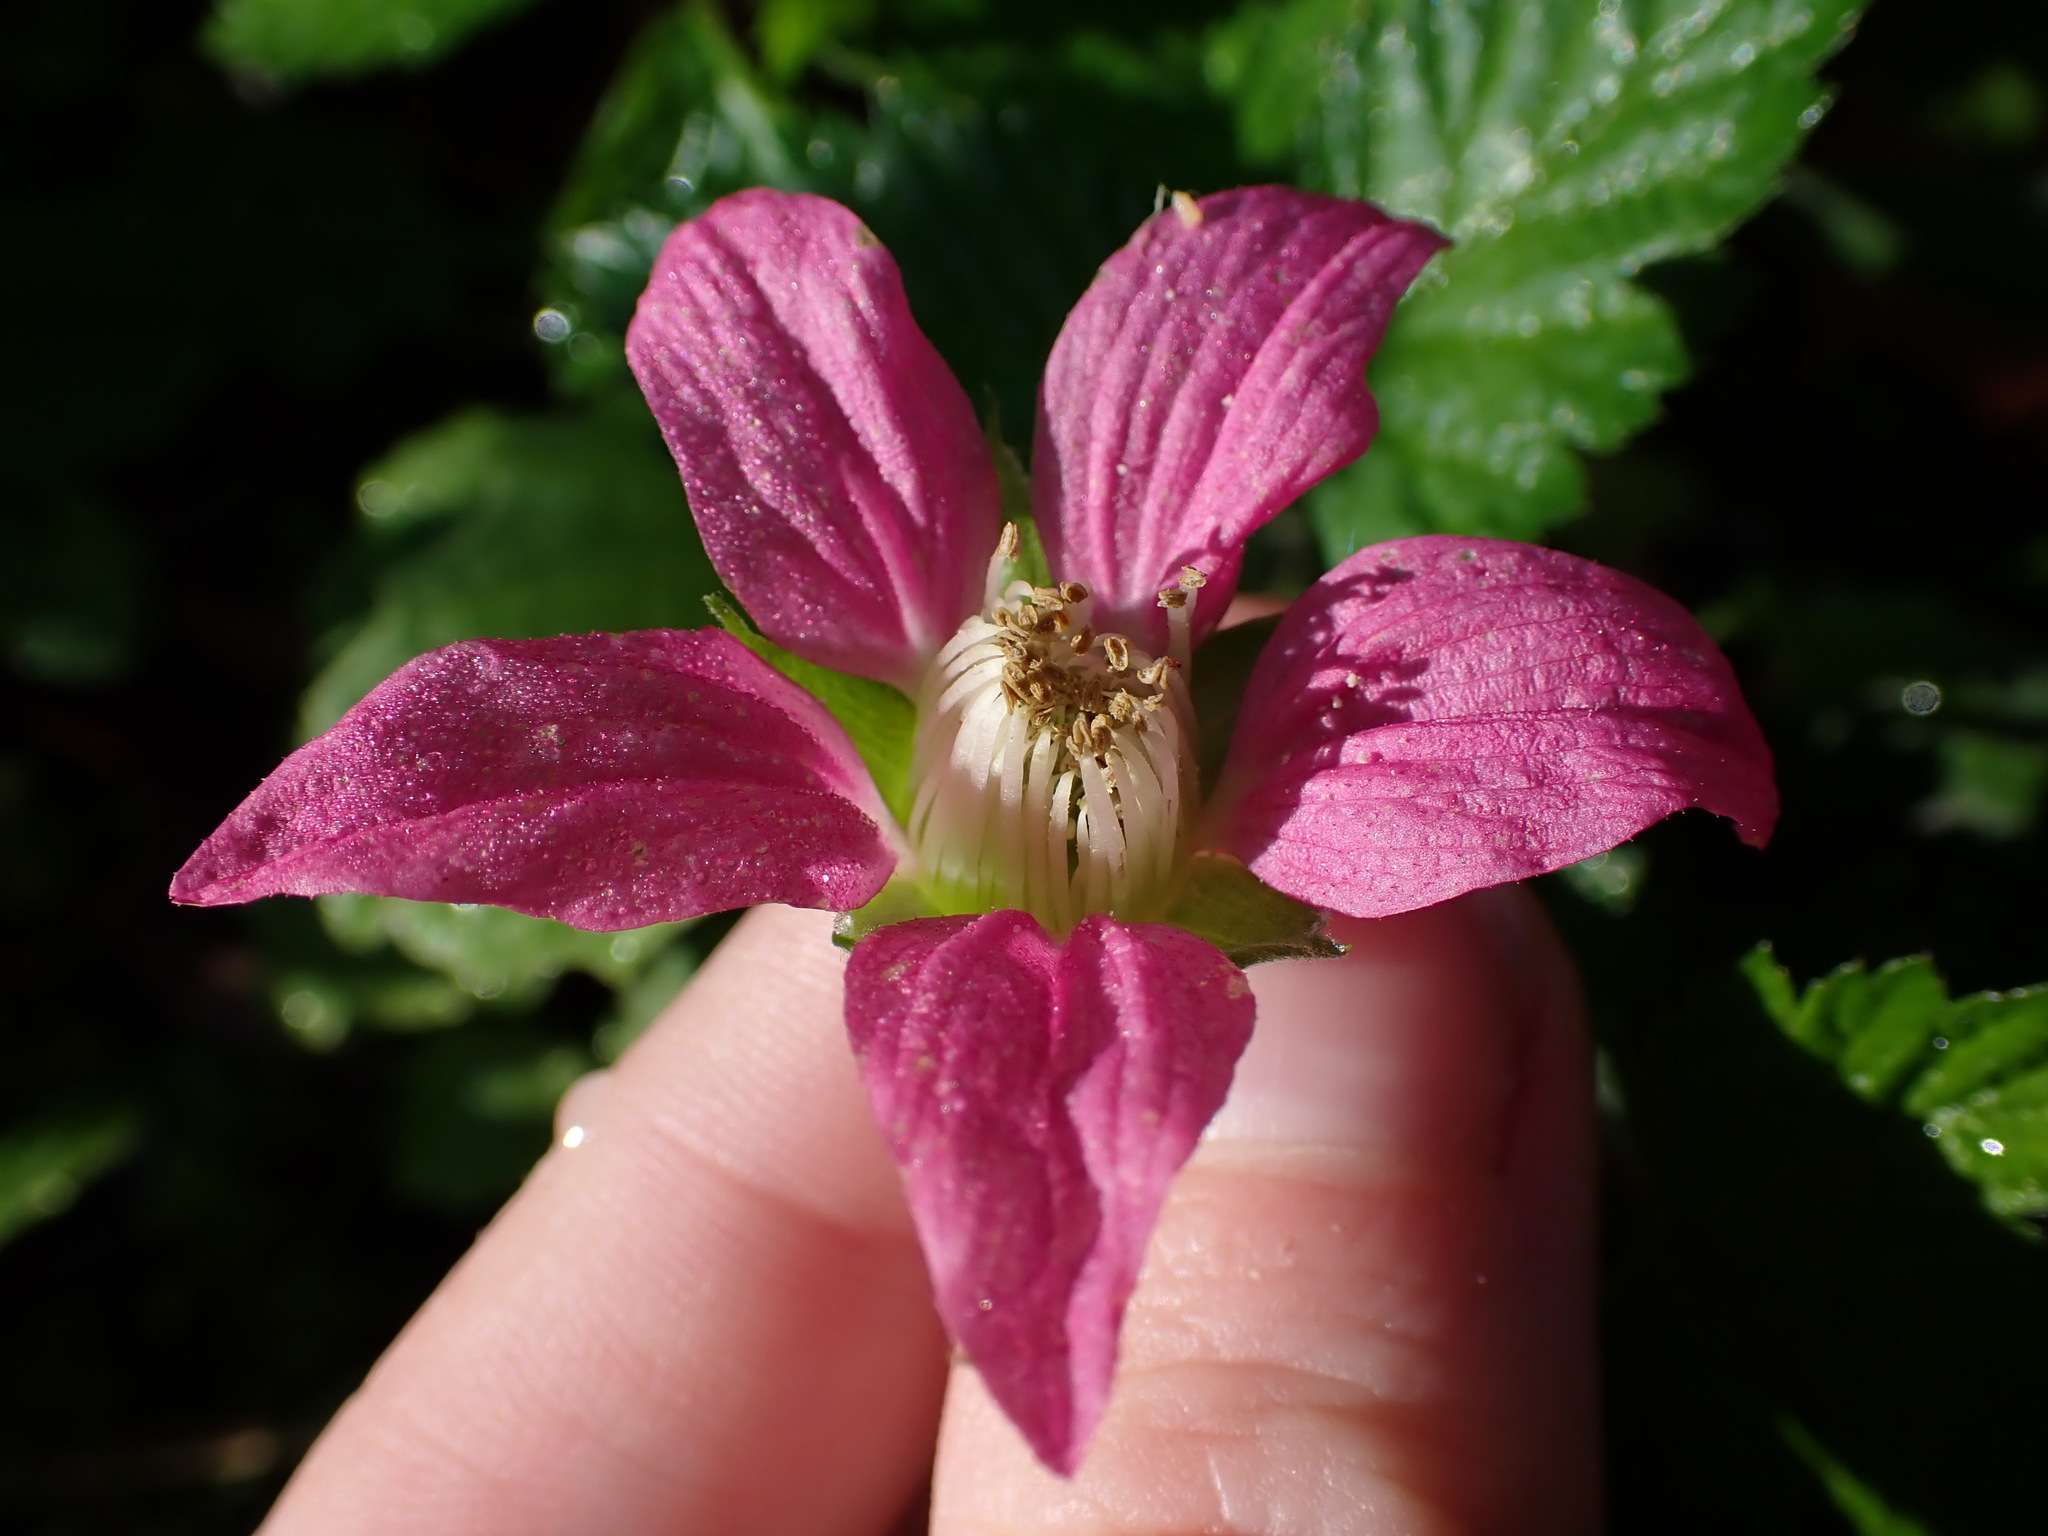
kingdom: Plantae
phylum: Tracheophyta
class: Magnoliopsida
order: Rosales
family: Rosaceae
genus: Rubus
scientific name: Rubus spectabilis
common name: Salmonberry
